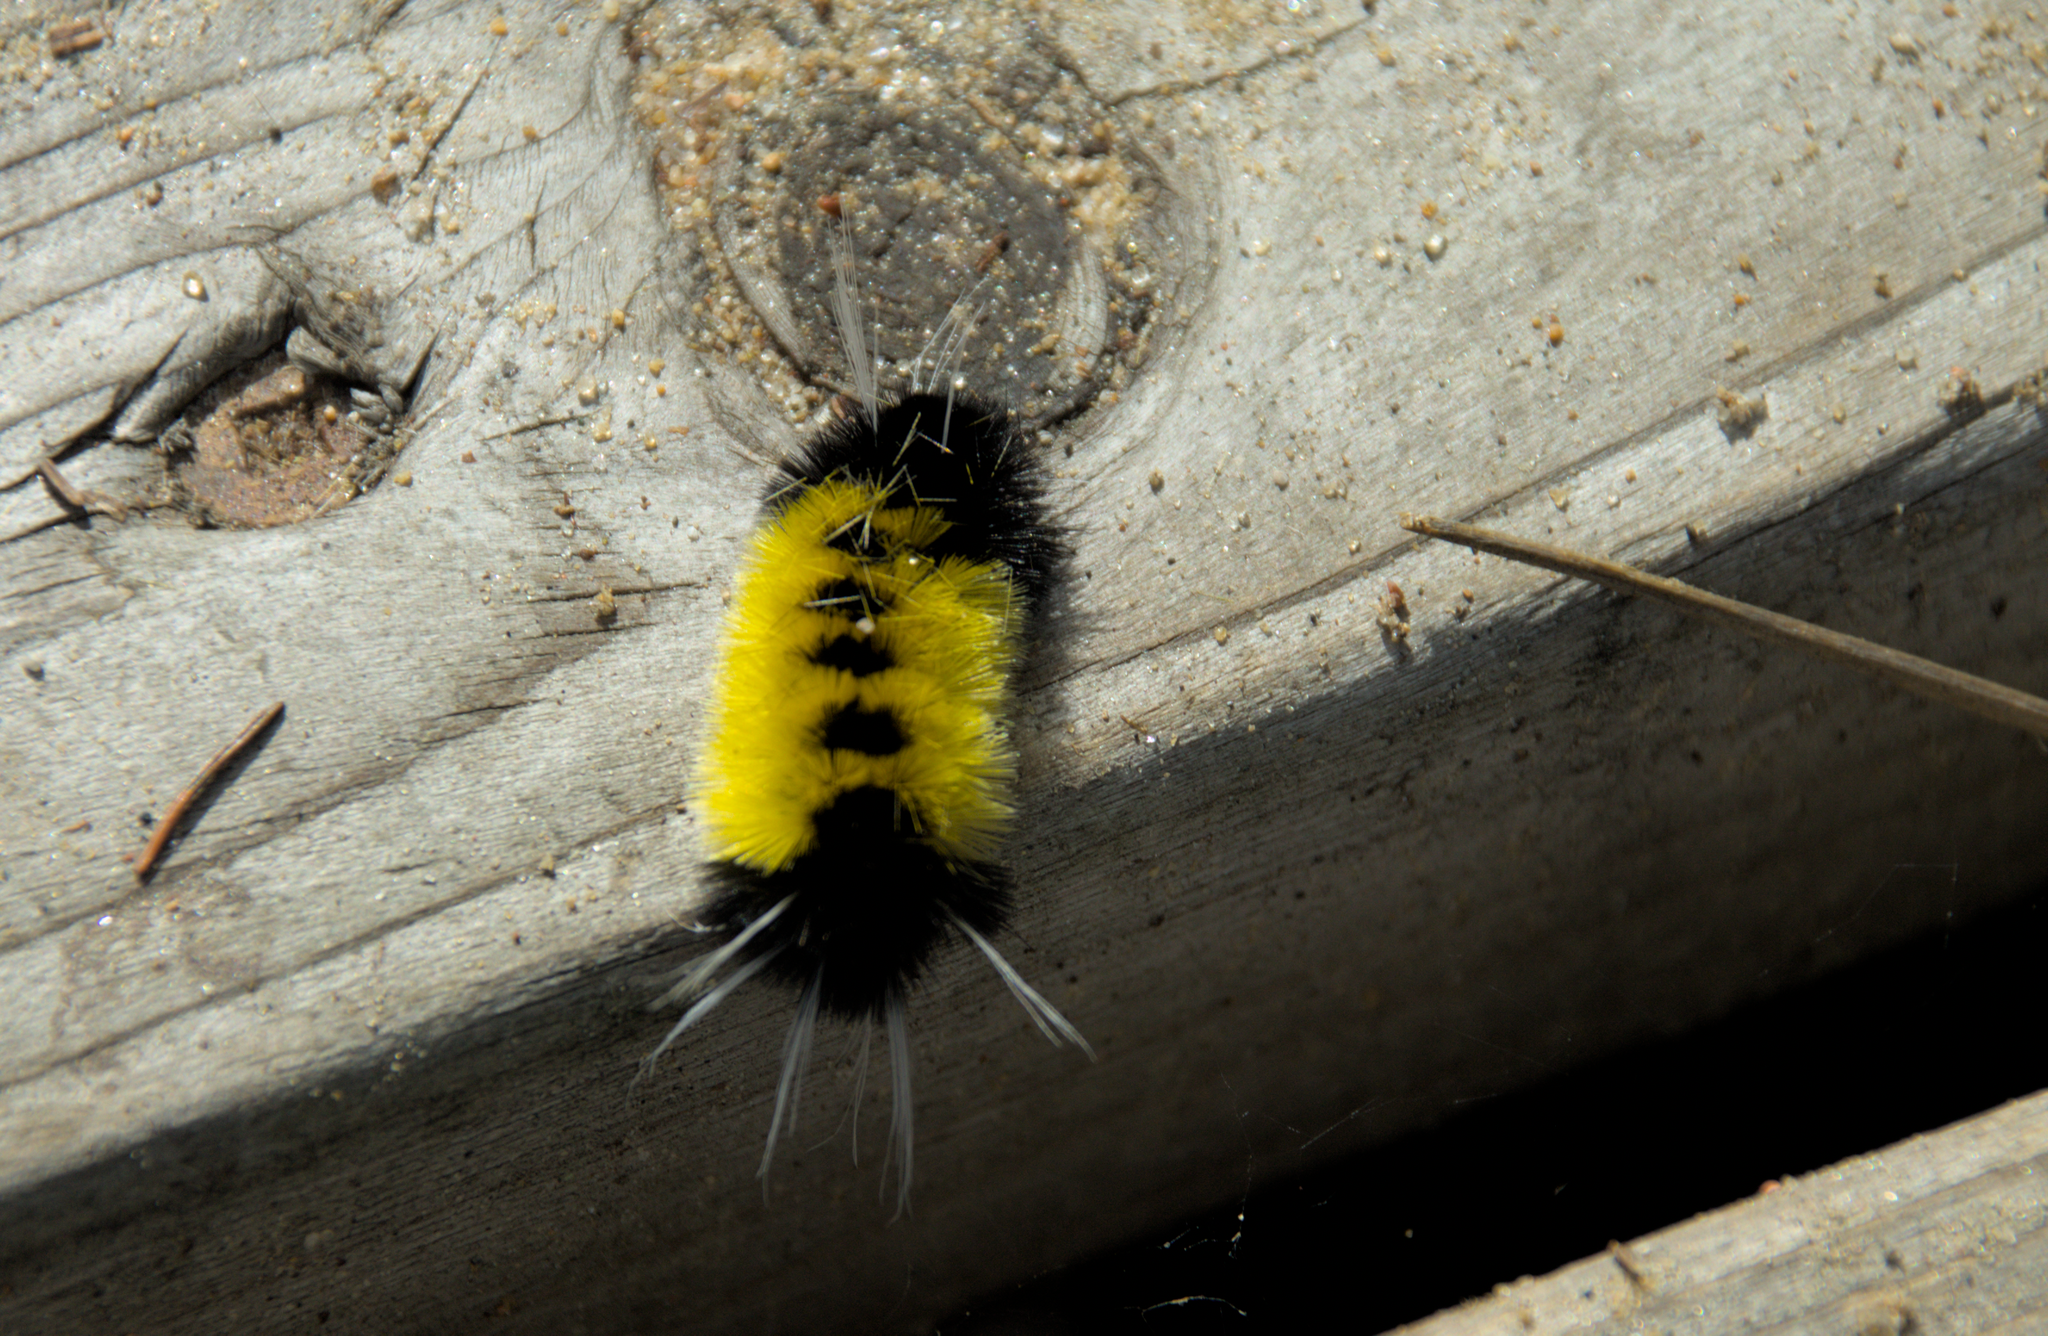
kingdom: Animalia
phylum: Arthropoda
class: Insecta
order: Lepidoptera
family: Erebidae
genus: Lophocampa
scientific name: Lophocampa maculata
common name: Spotted tussock moth
